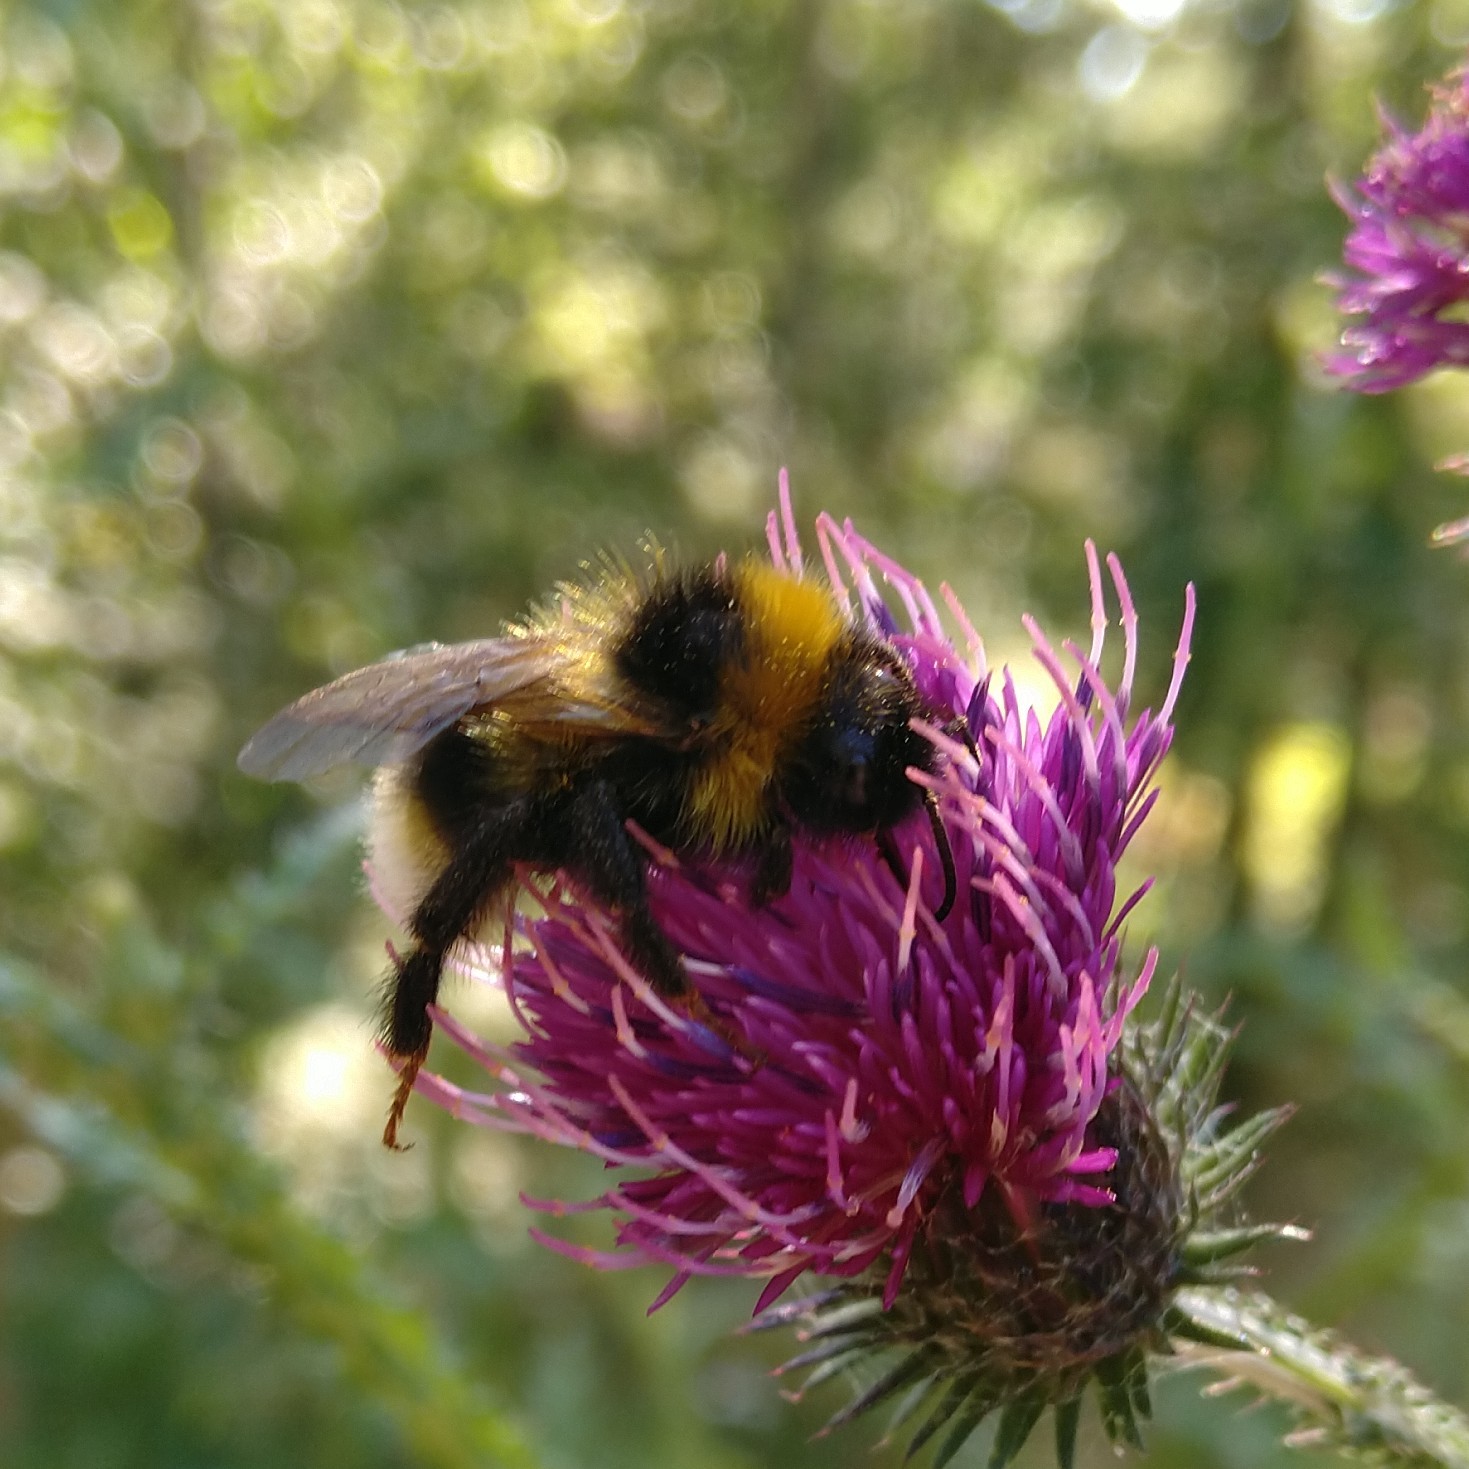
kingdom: Animalia
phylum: Arthropoda
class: Insecta
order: Hymenoptera
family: Apidae
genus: Bombus
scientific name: Bombus hortorum
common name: Garden bumblebee
